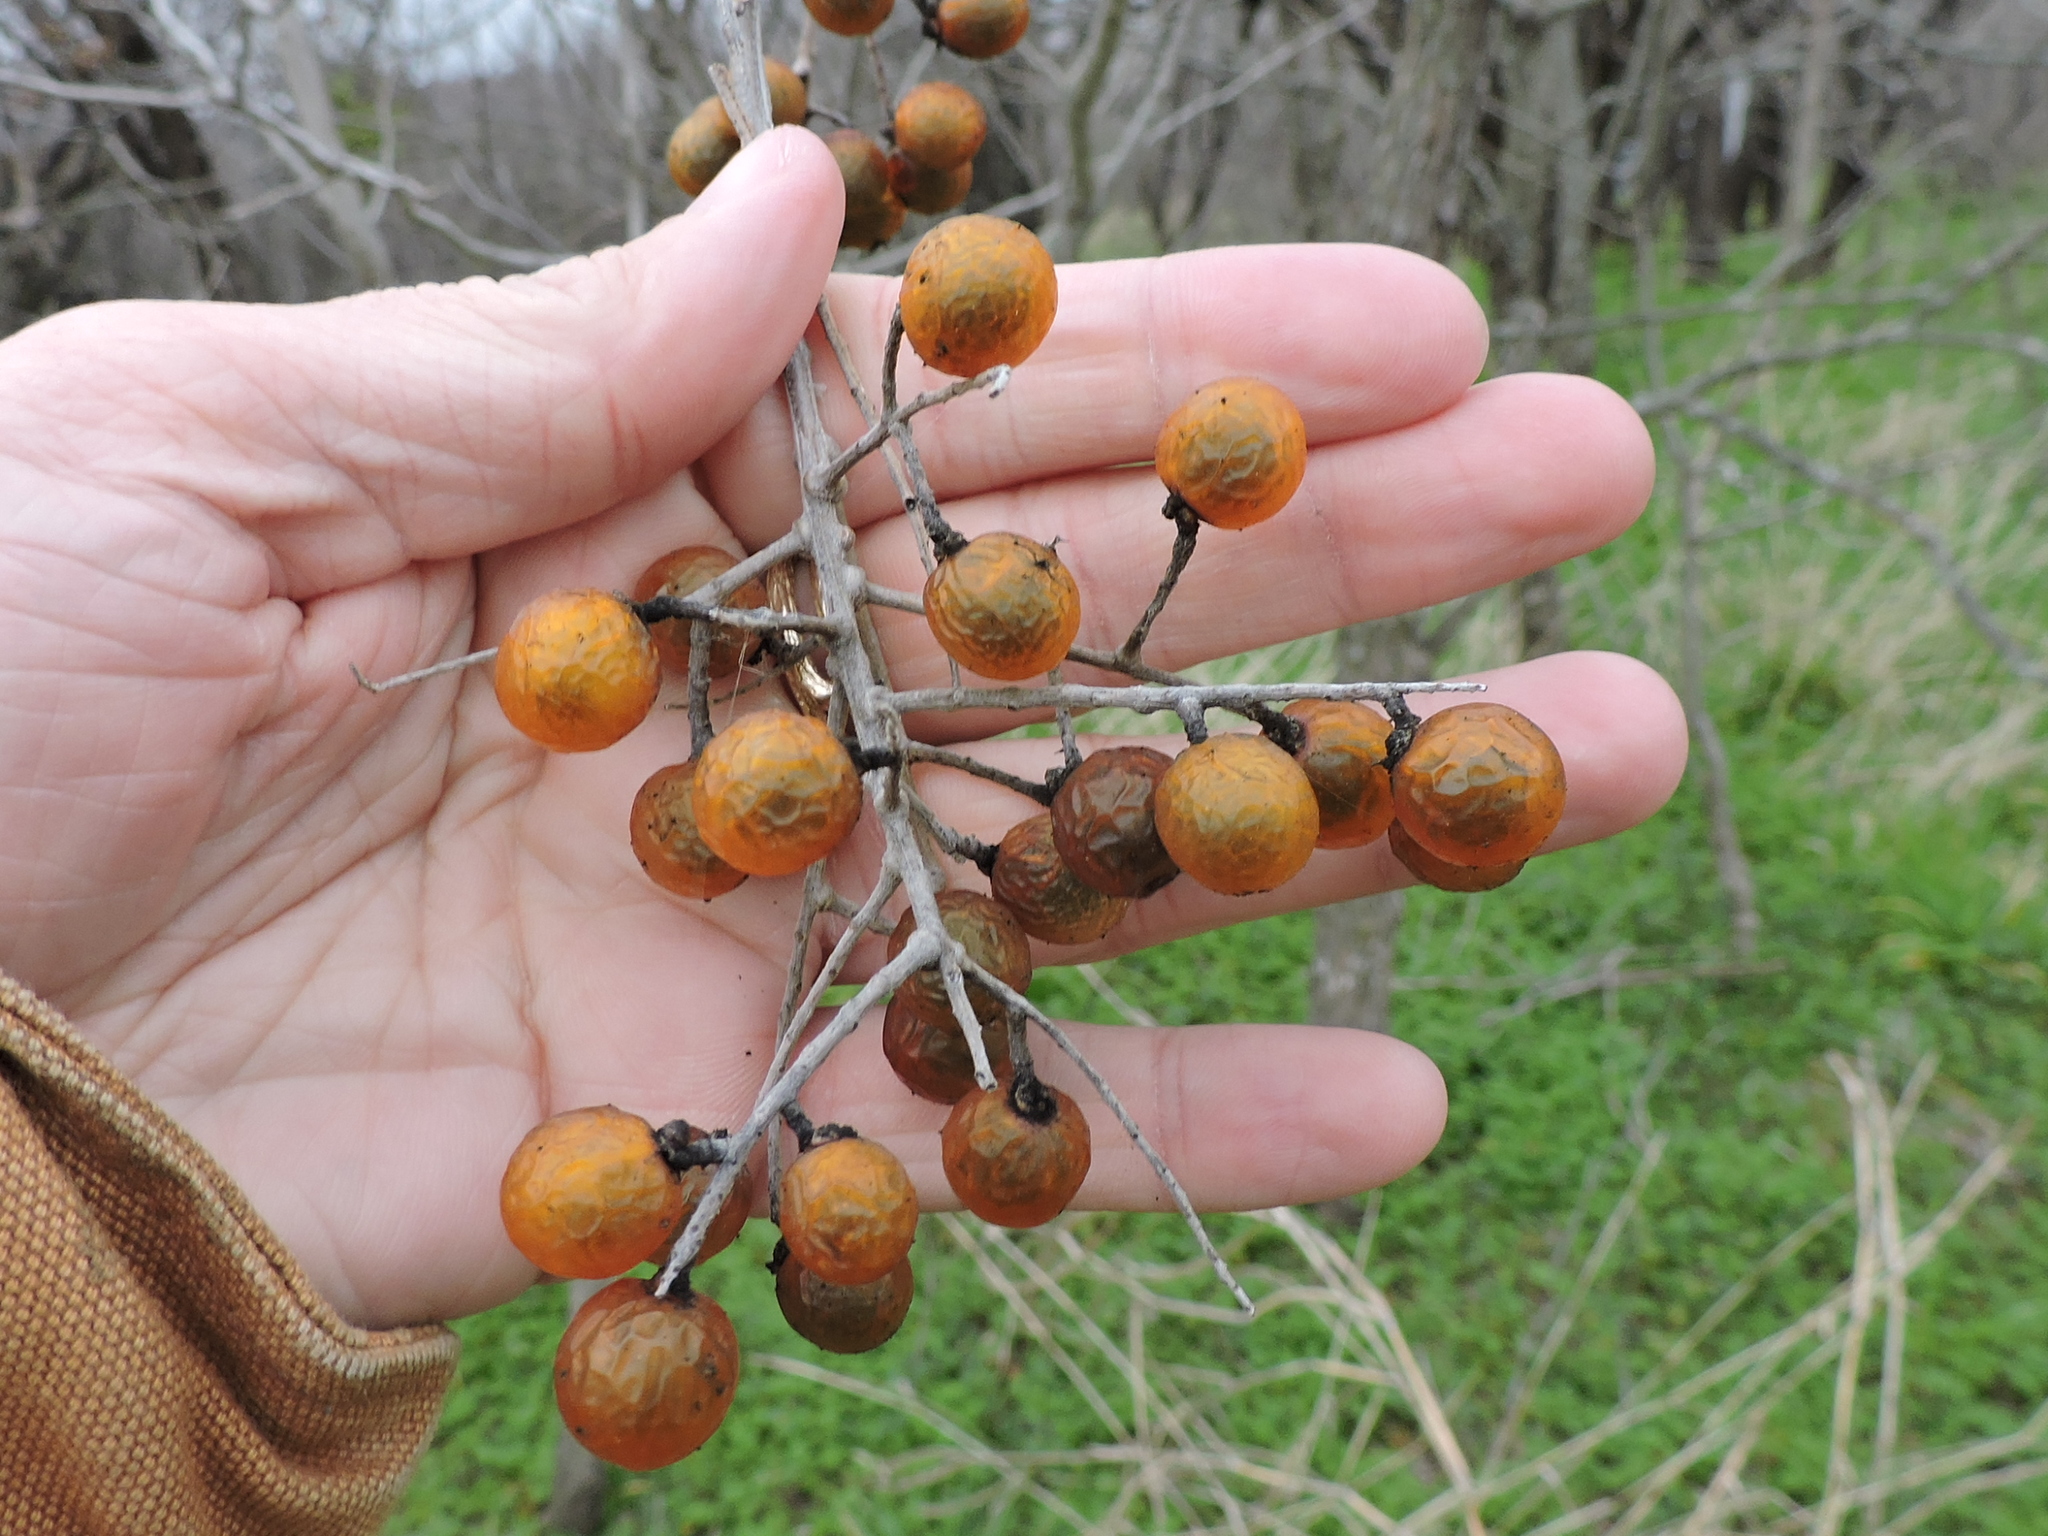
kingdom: Plantae
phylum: Tracheophyta
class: Magnoliopsida
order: Sapindales
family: Sapindaceae
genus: Sapindus
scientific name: Sapindus drummondii
